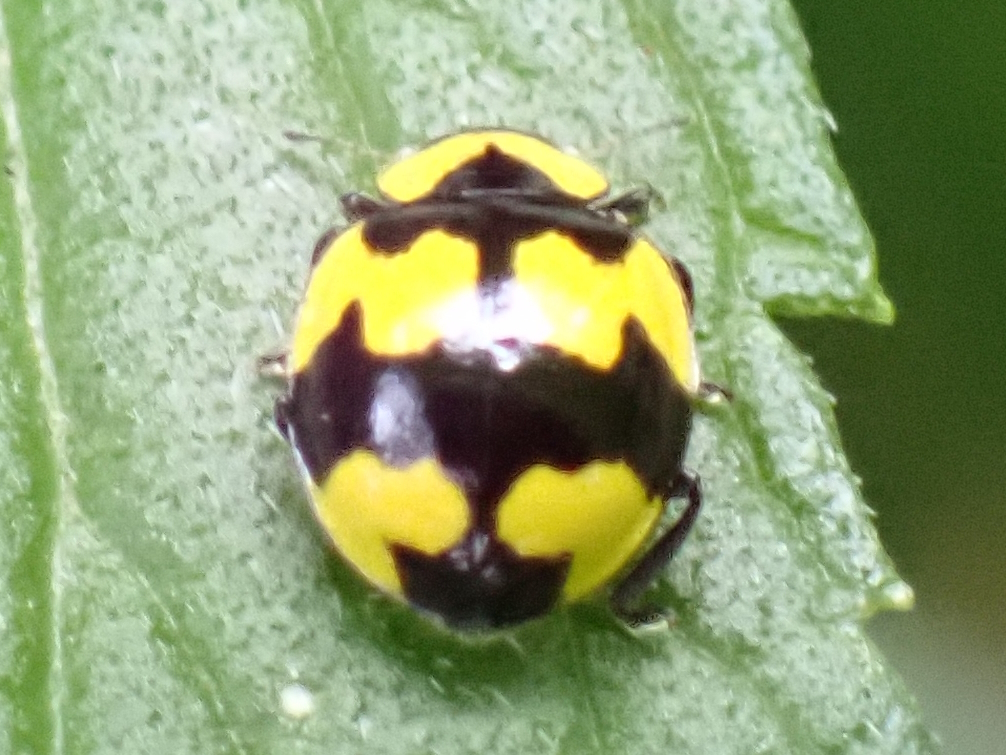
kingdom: Animalia
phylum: Arthropoda
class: Insecta
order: Coleoptera
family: Coccinellidae
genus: Illeis
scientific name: Illeis galbula
